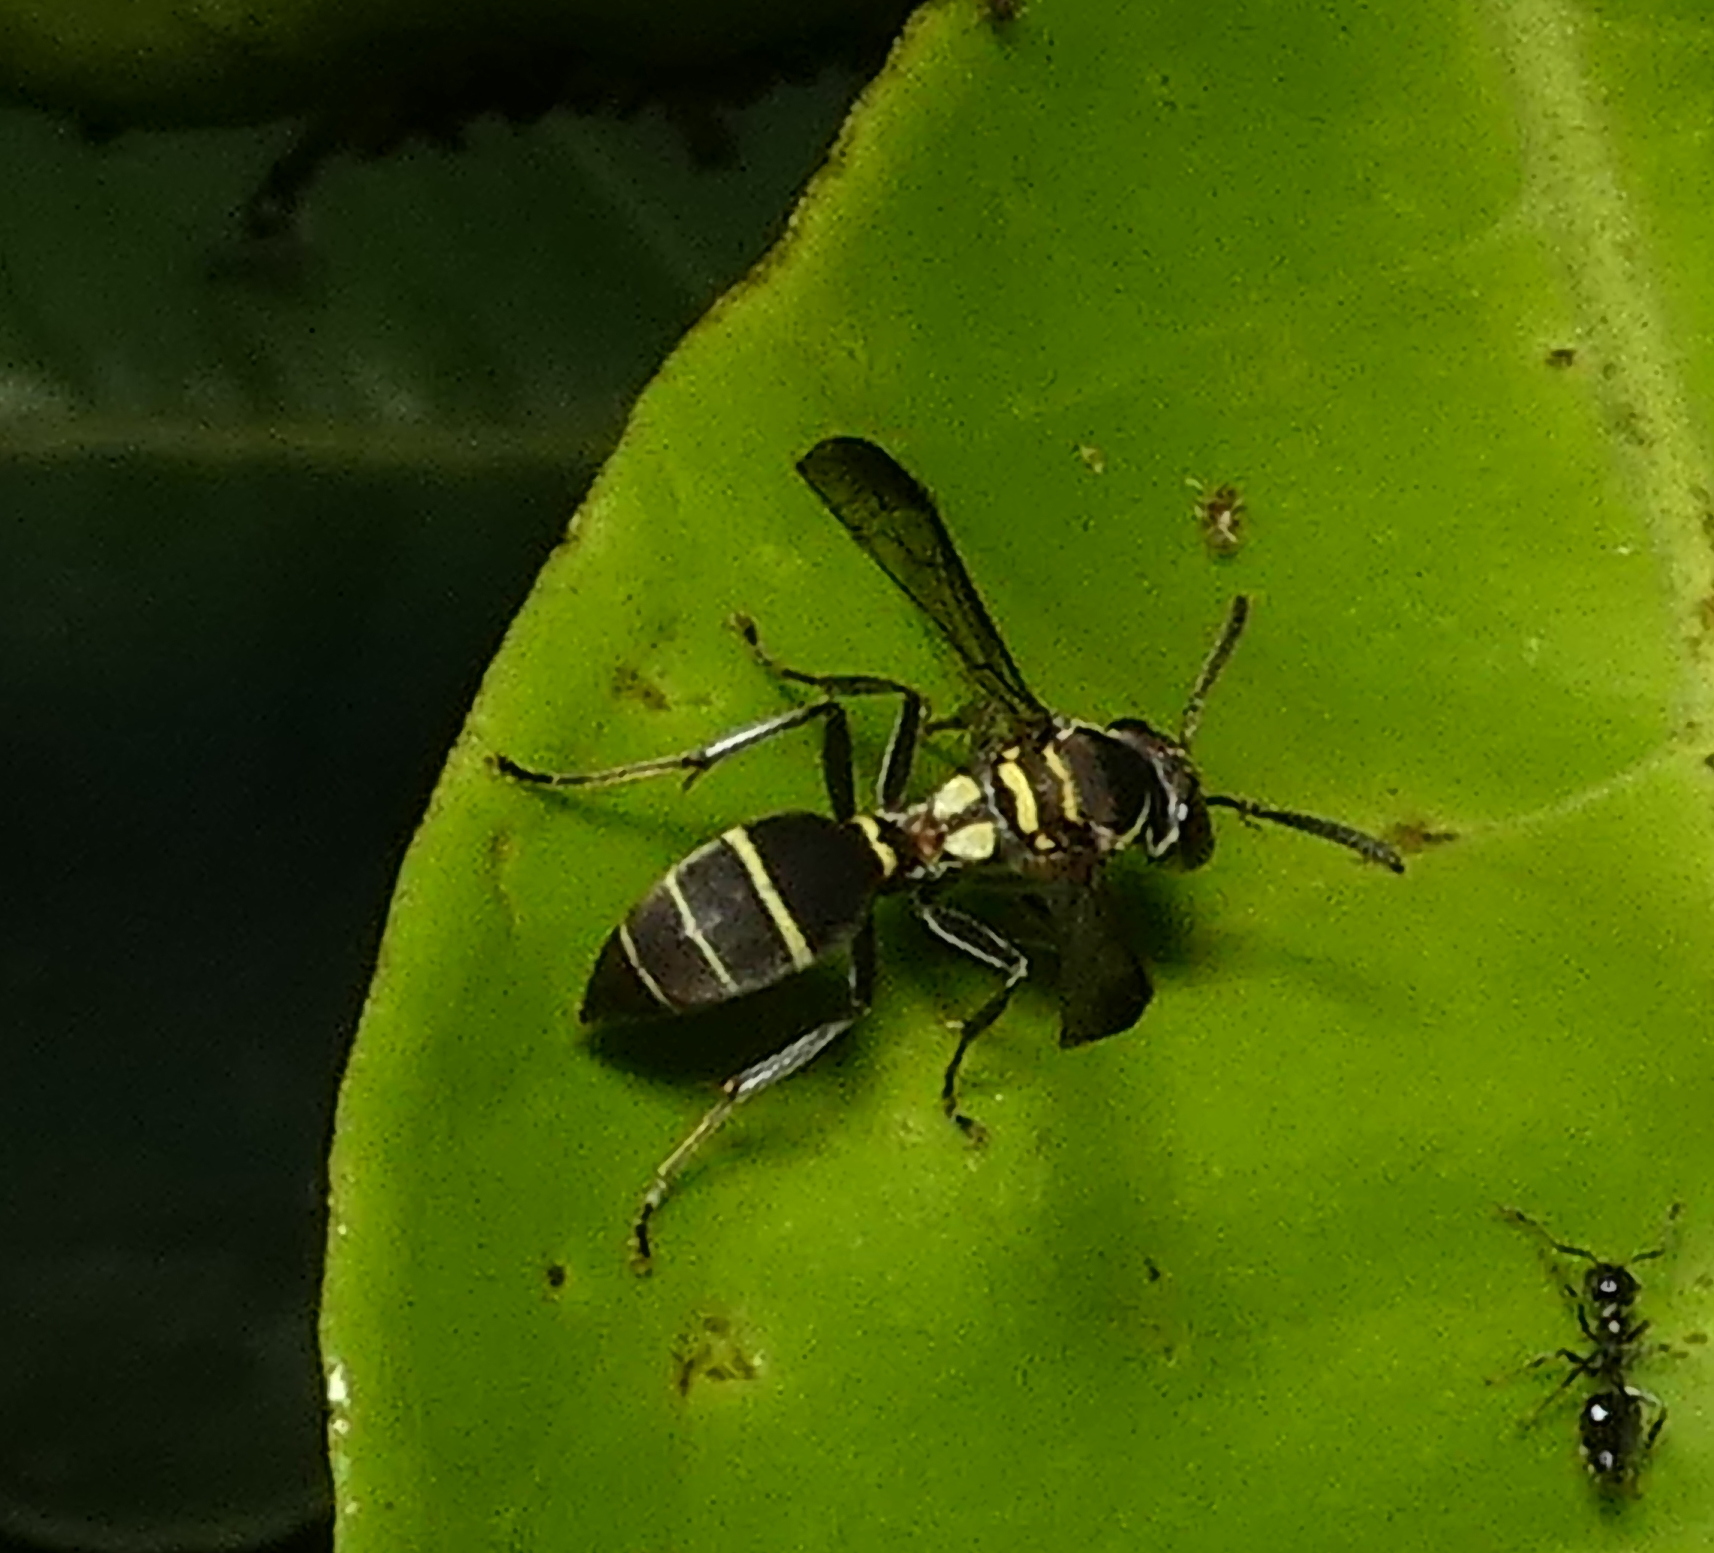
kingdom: Animalia
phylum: Arthropoda
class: Insecta
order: Hymenoptera
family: Eumenidae
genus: Polybia
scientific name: Polybia occidentalis
